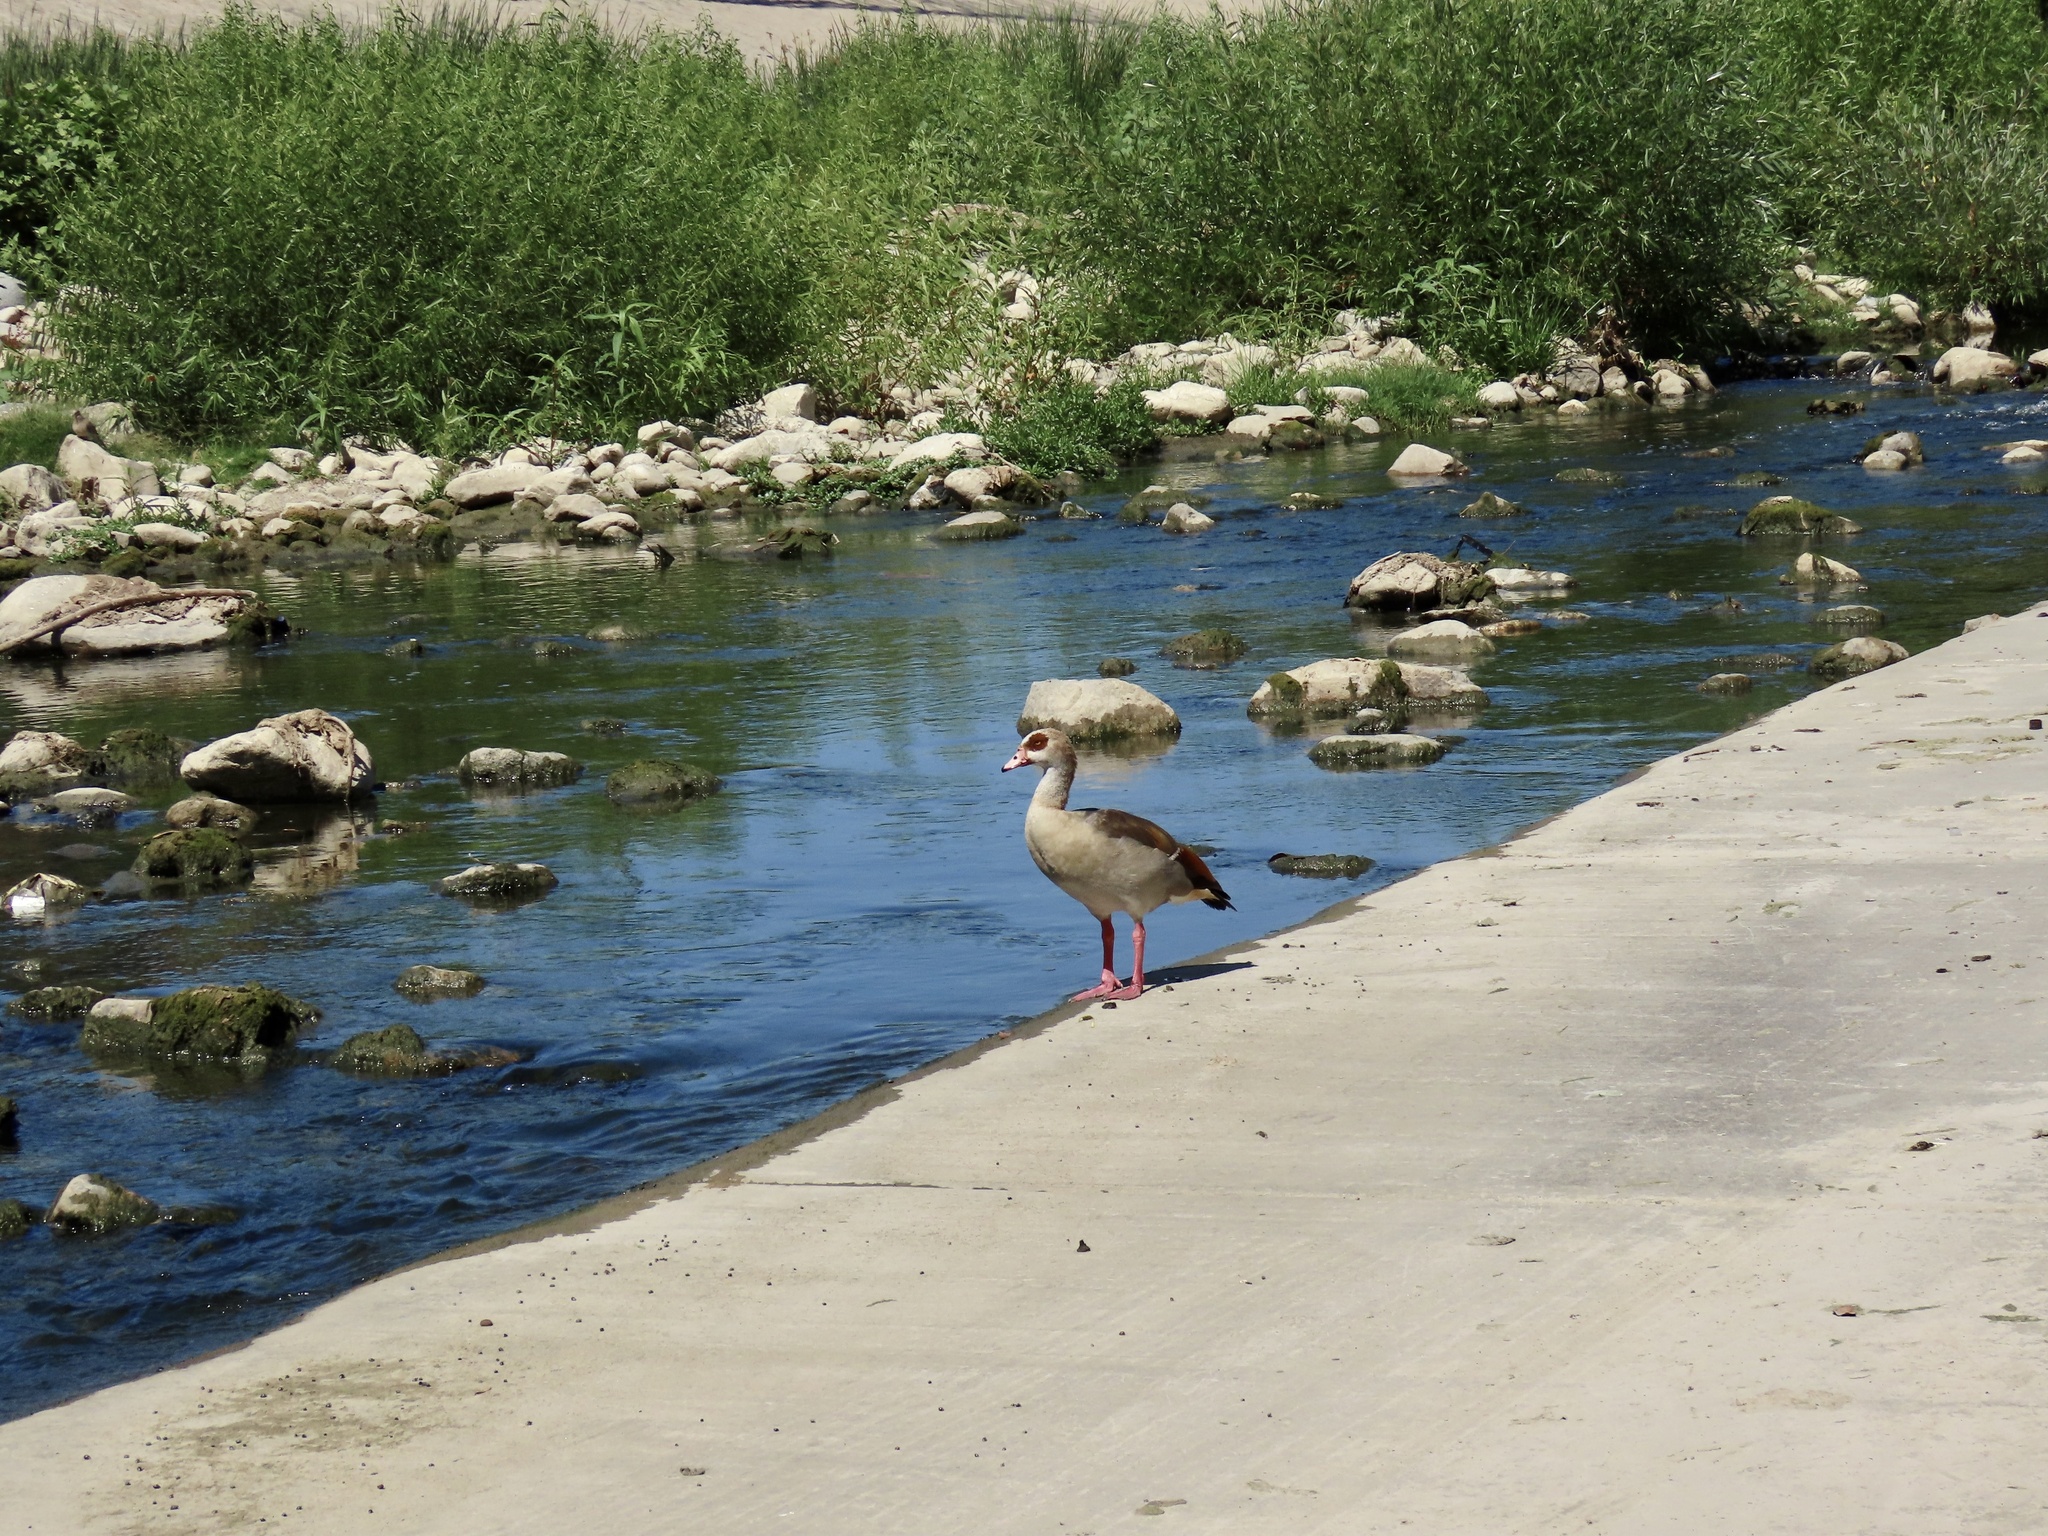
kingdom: Animalia
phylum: Chordata
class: Aves
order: Anseriformes
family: Anatidae
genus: Alopochen
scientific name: Alopochen aegyptiaca
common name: Egyptian goose
